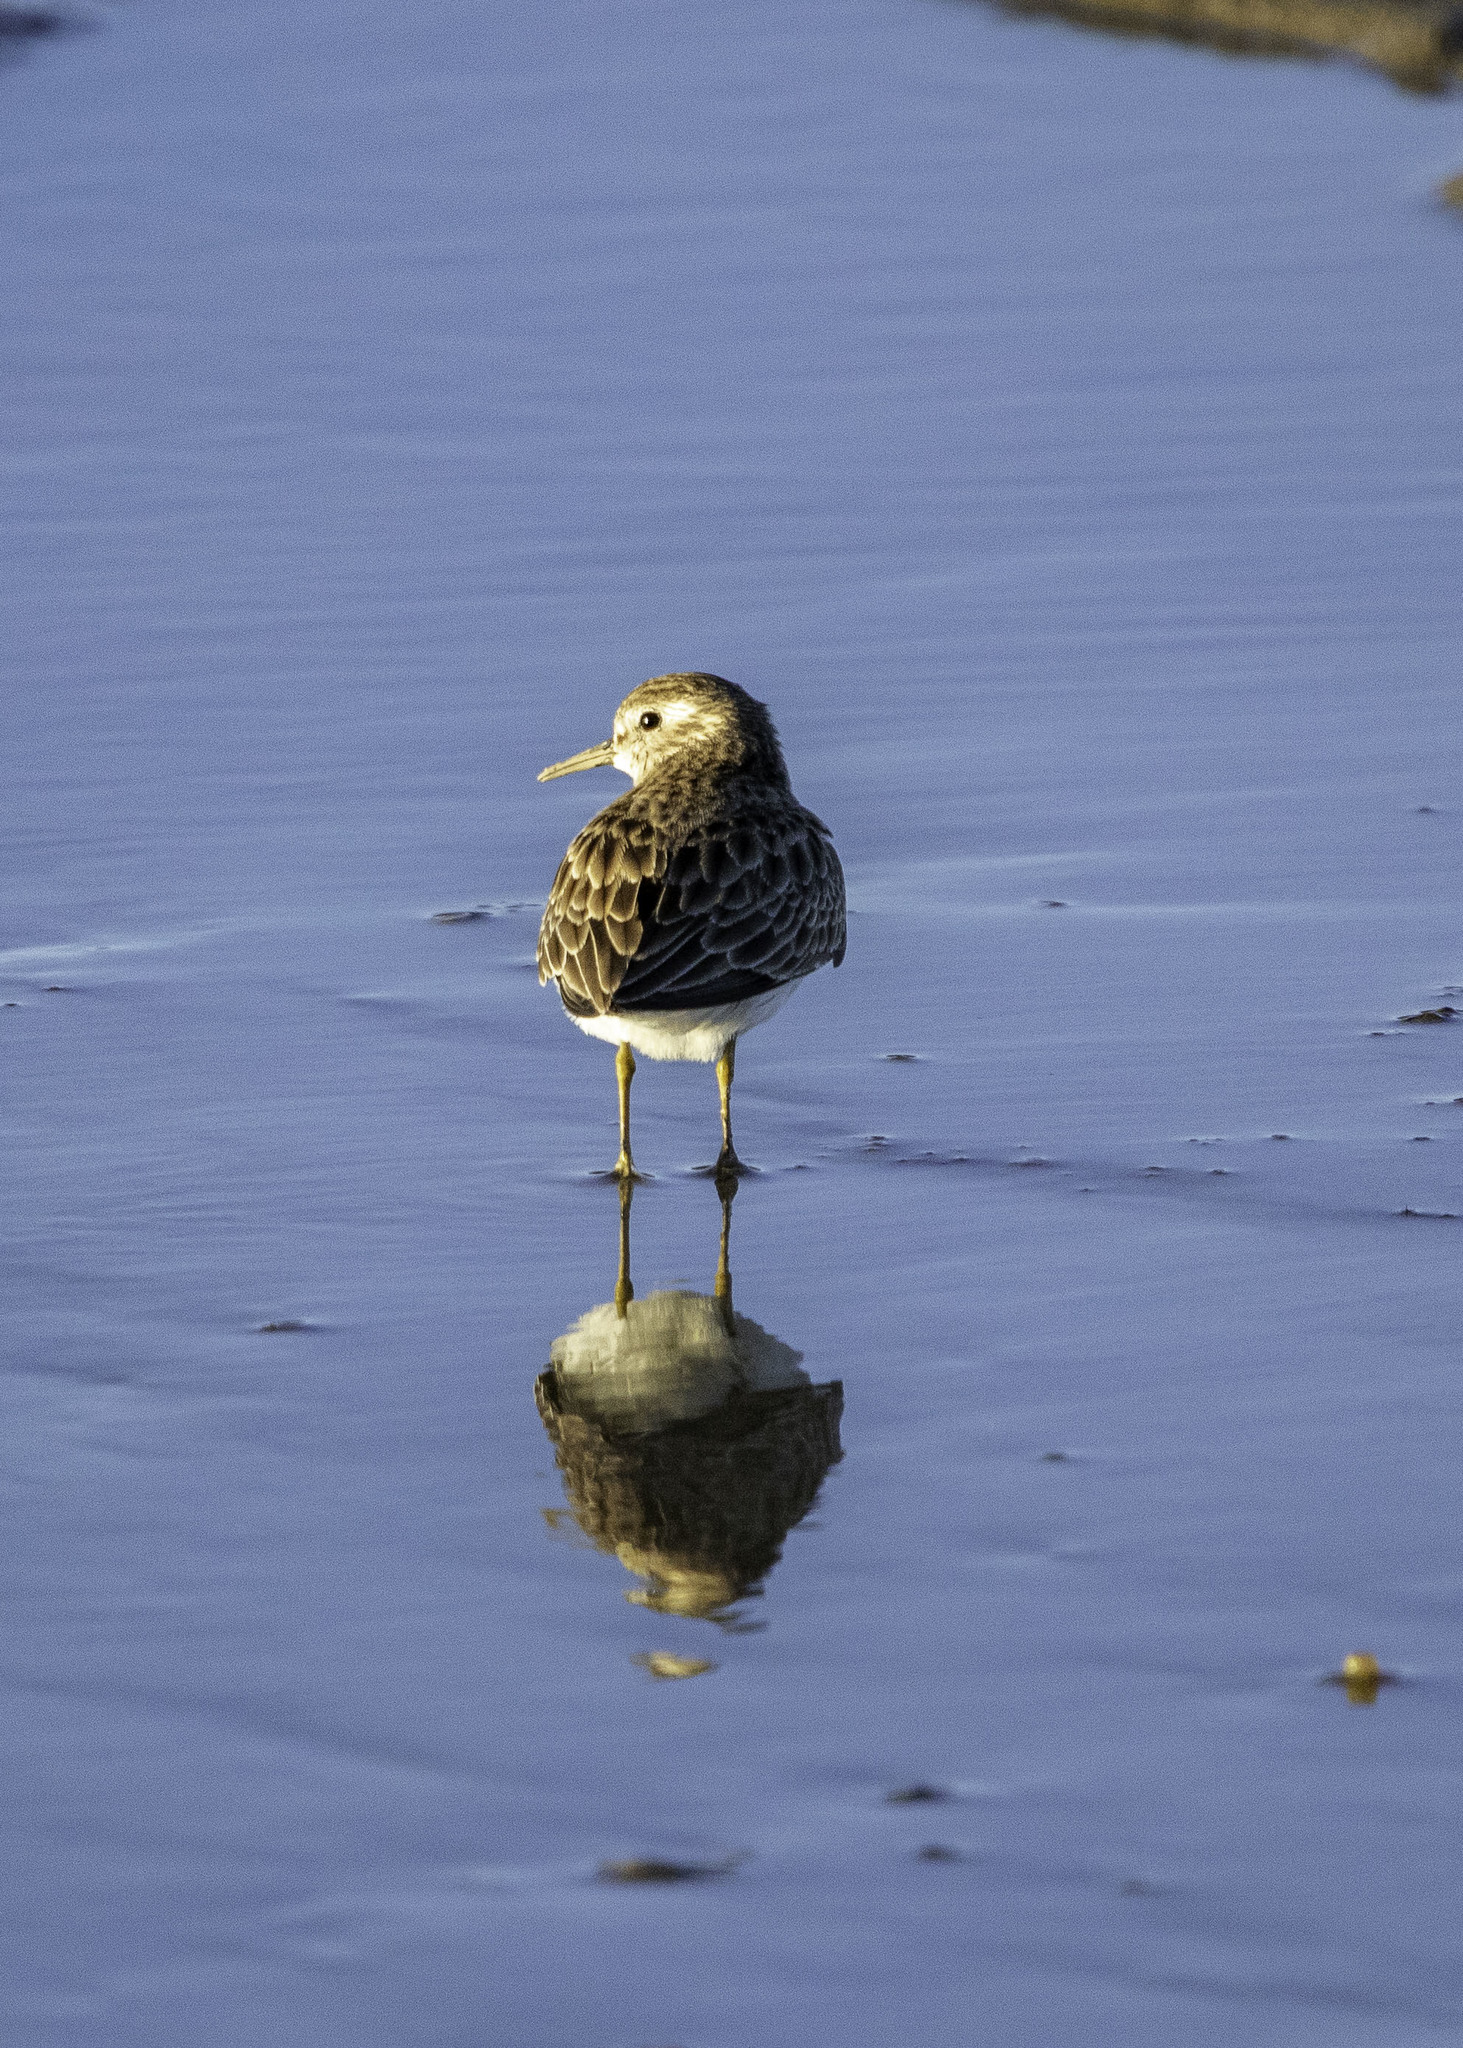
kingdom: Animalia
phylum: Chordata
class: Aves
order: Charadriiformes
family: Scolopacidae
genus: Calidris
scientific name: Calidris minutilla
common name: Least sandpiper
